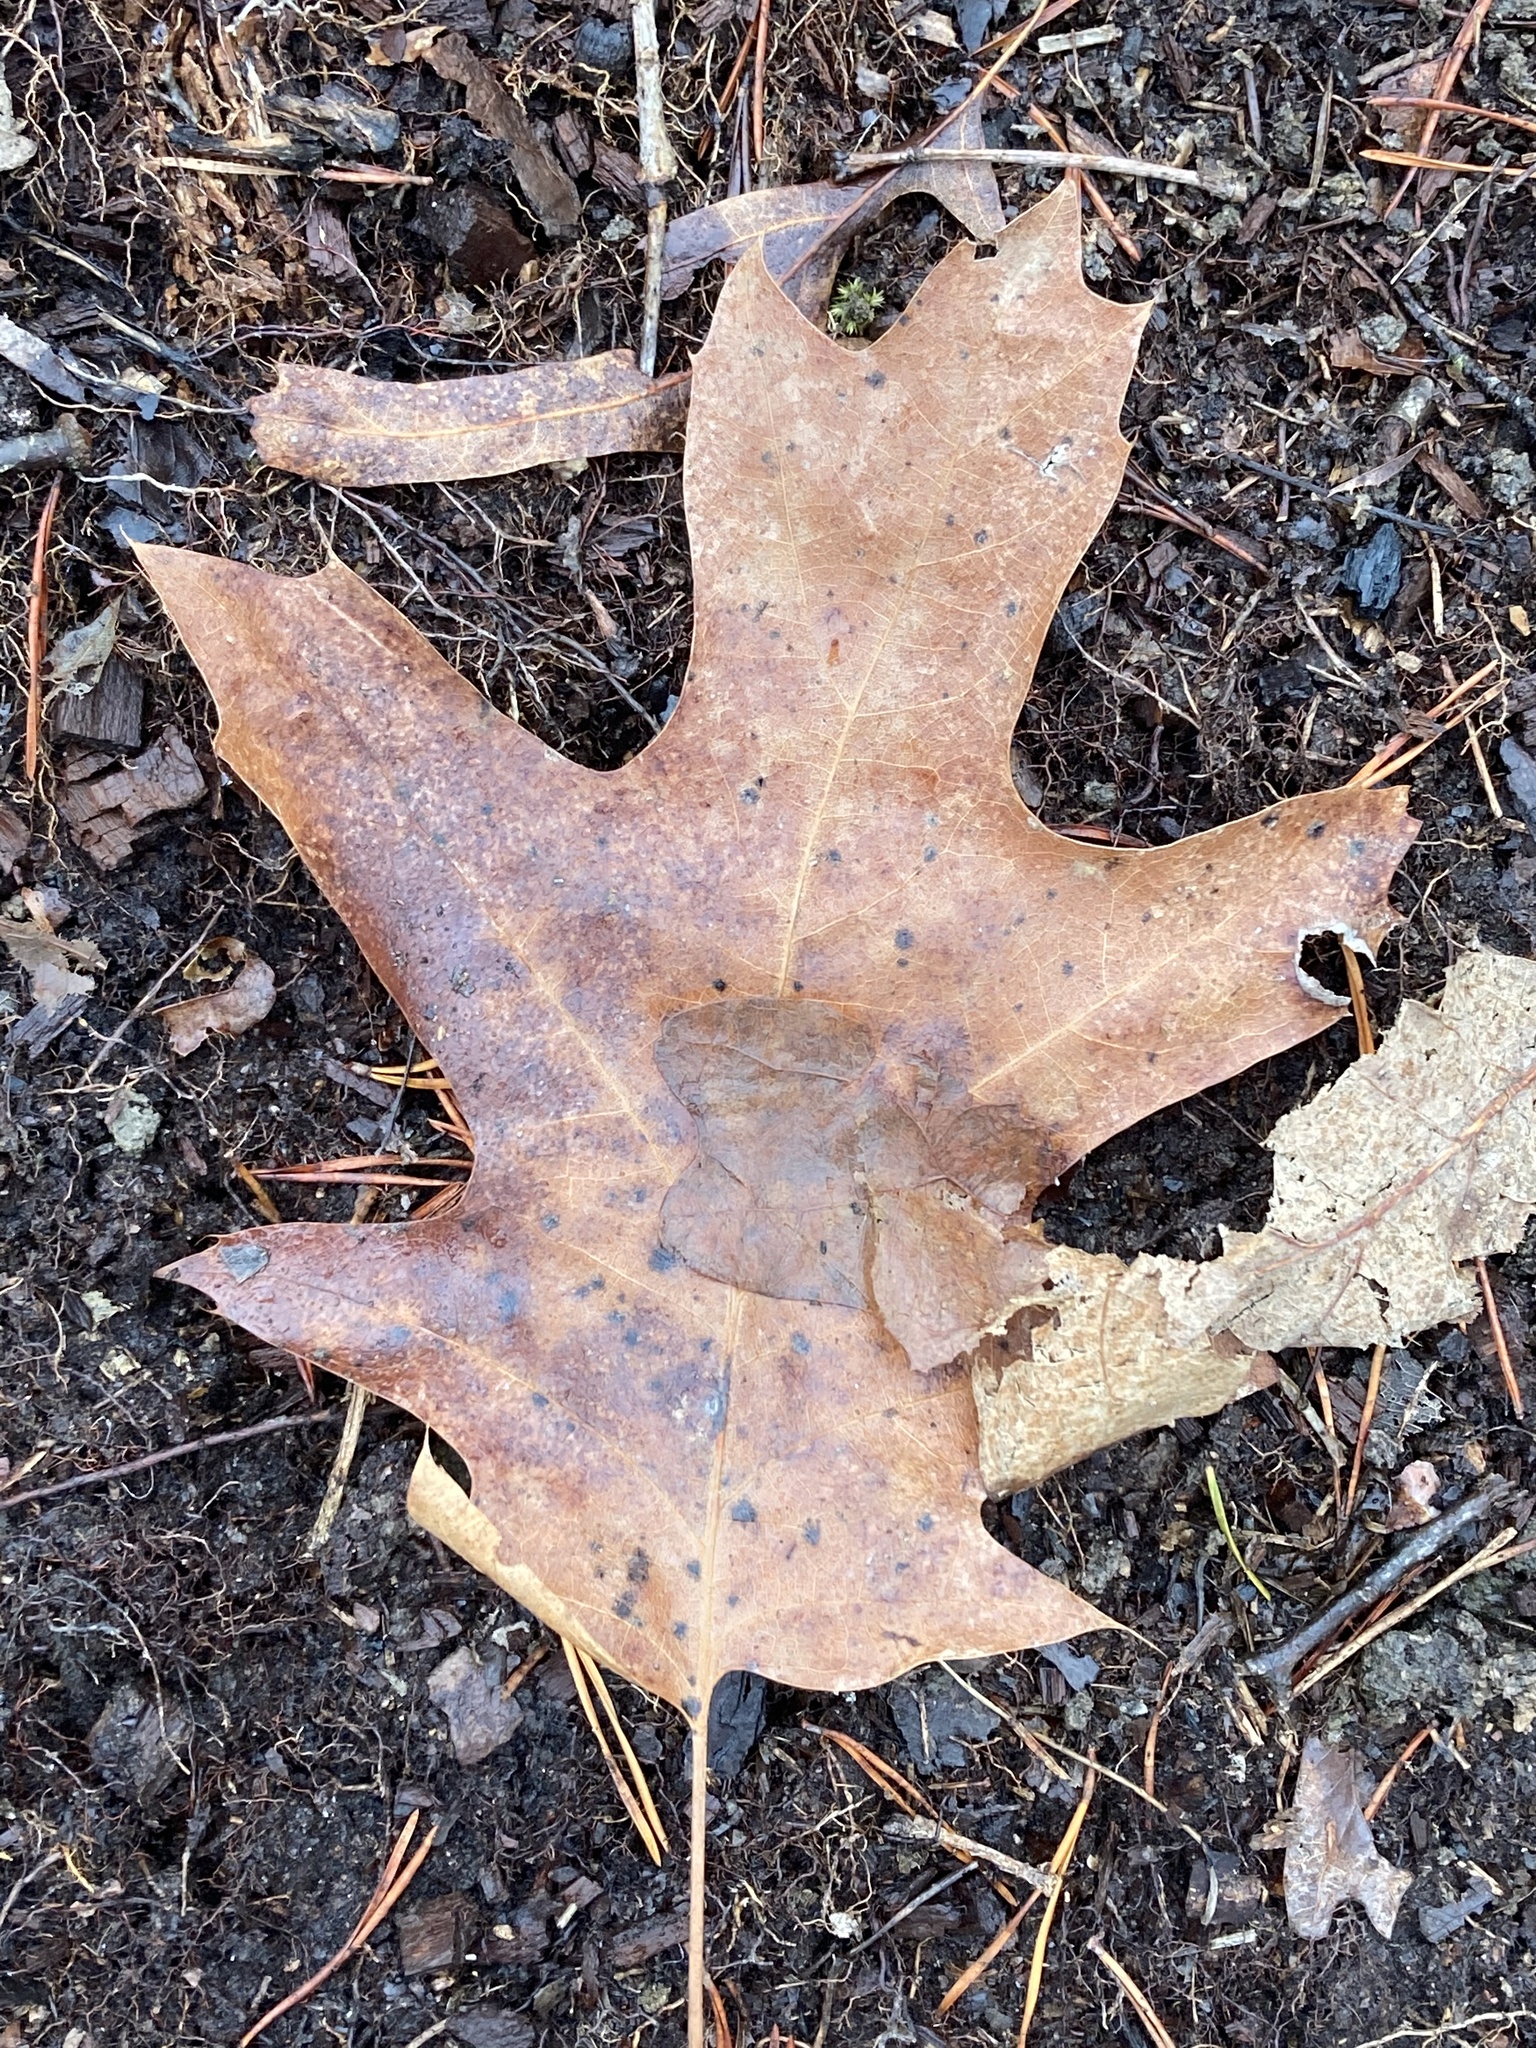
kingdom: Plantae
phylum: Tracheophyta
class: Magnoliopsida
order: Fagales
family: Fagaceae
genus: Quercus
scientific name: Quercus velutina
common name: Black oak
